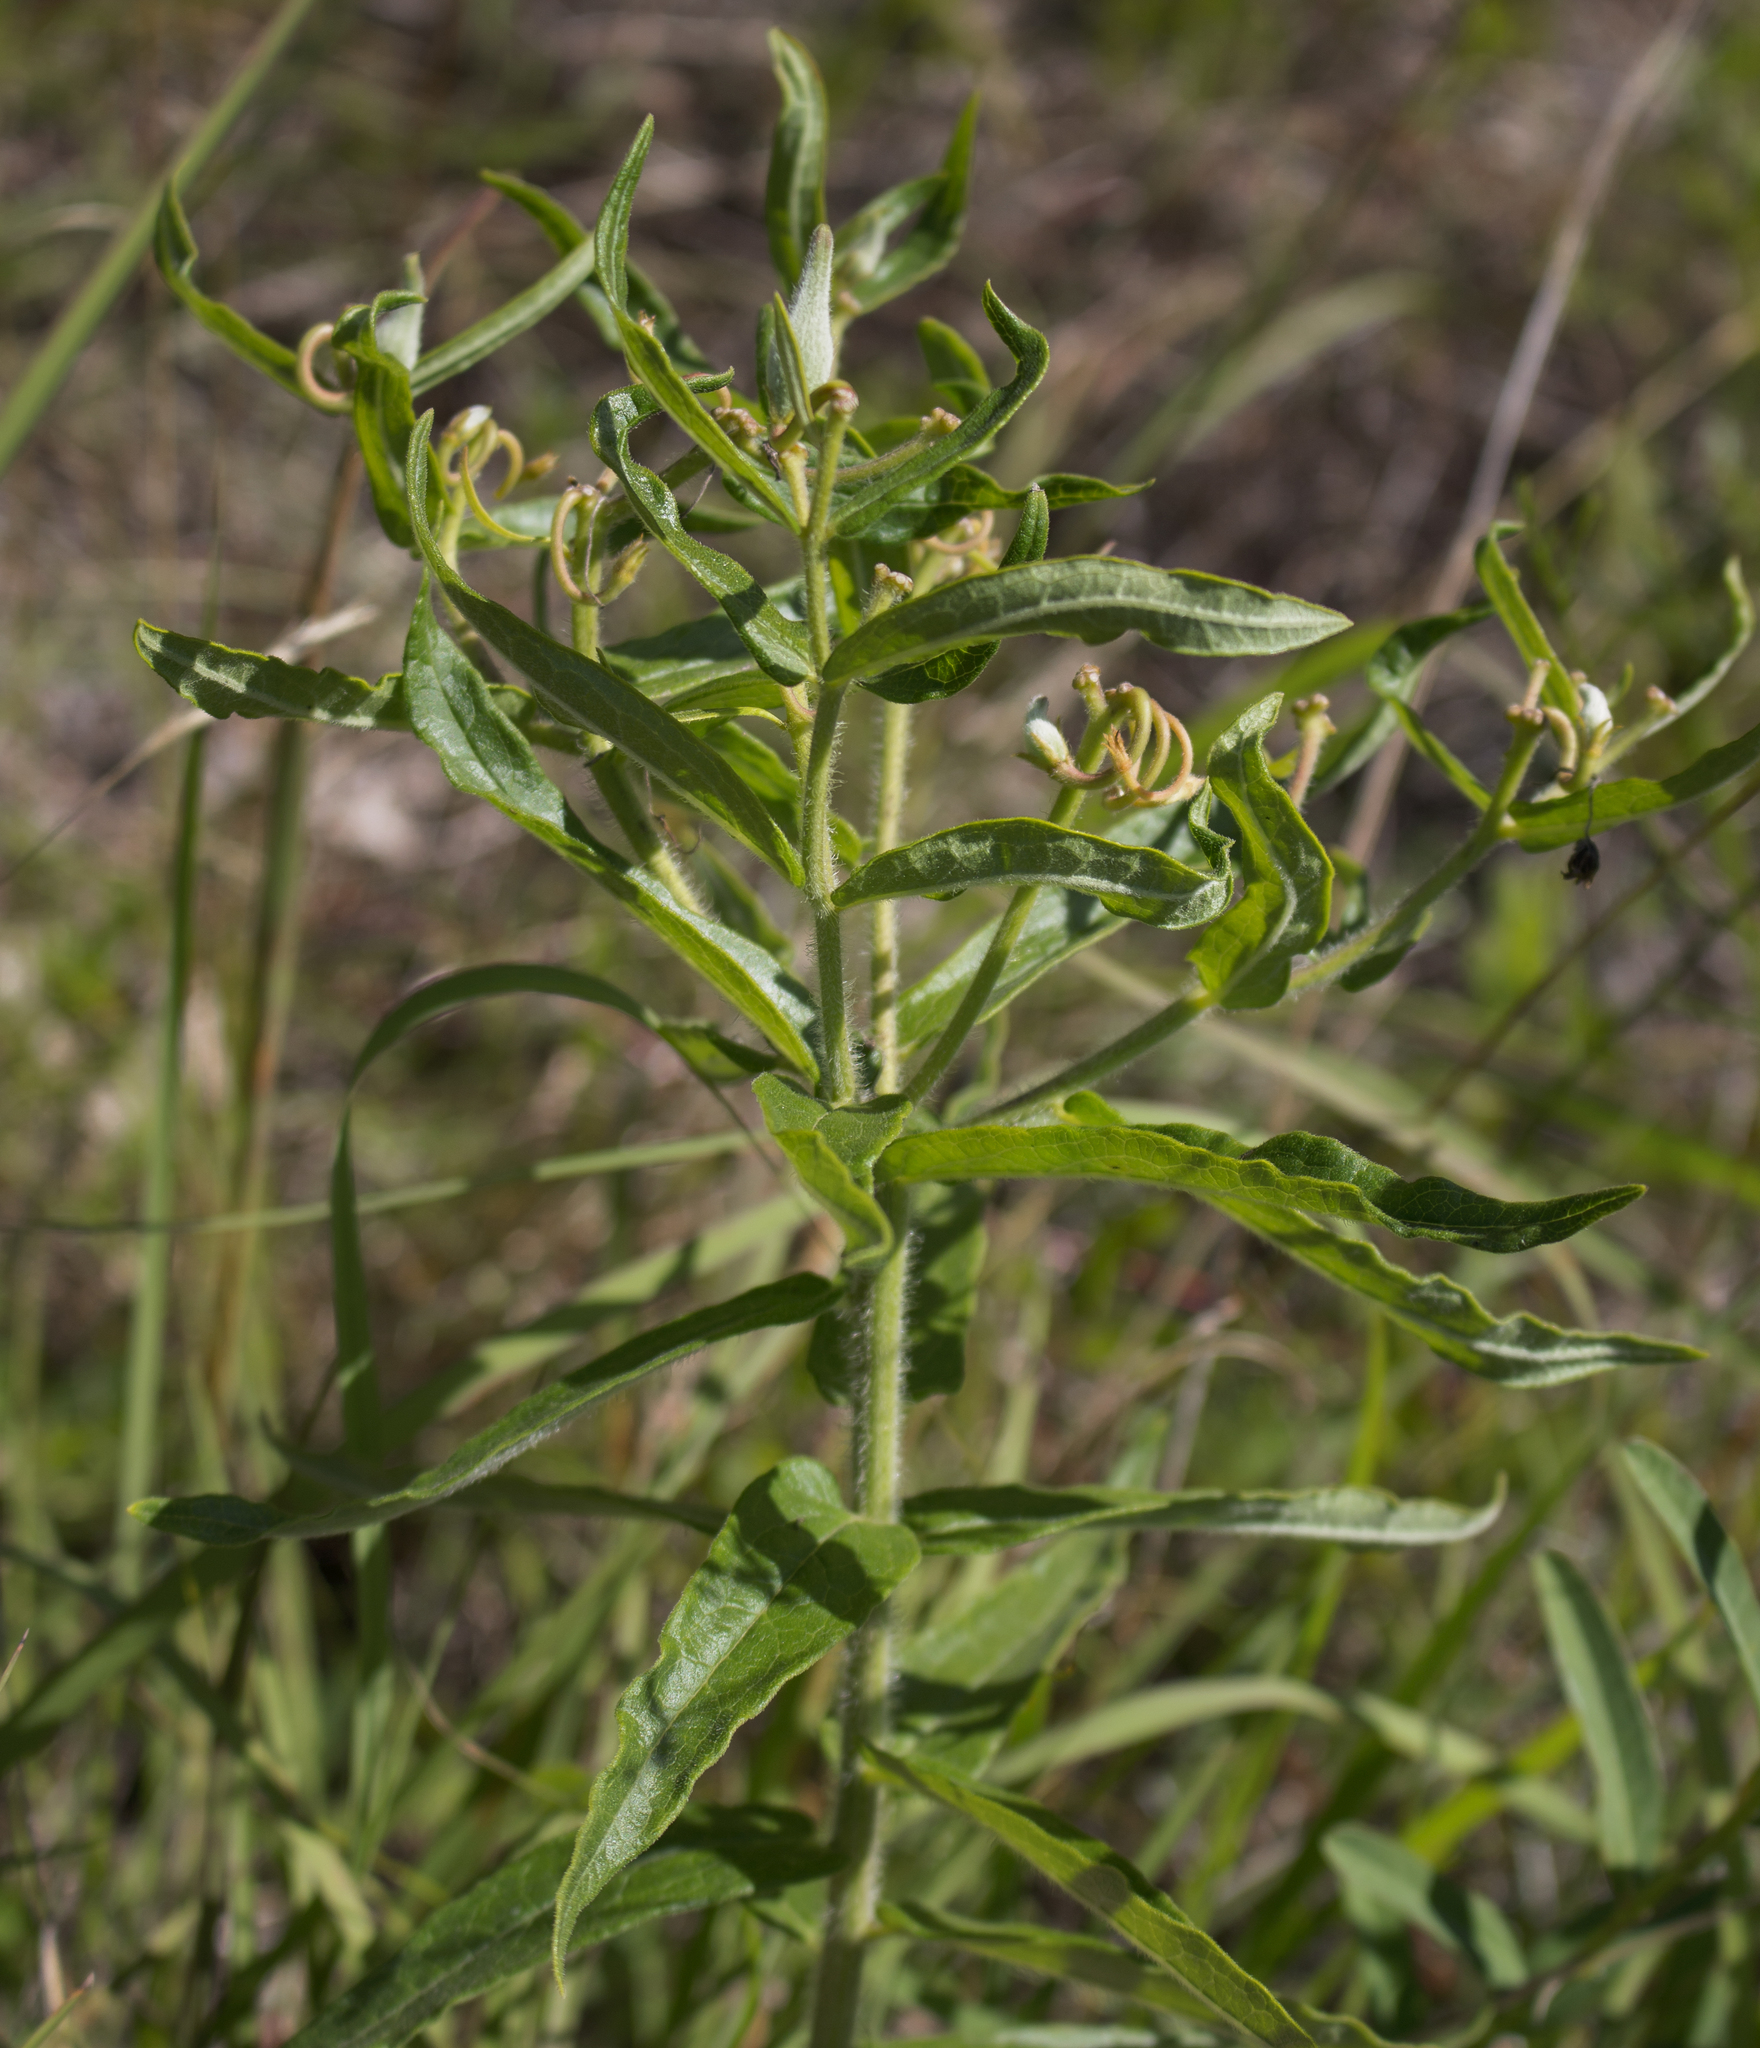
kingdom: Plantae
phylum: Tracheophyta
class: Magnoliopsida
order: Gentianales
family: Apocynaceae
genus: Asclepias
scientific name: Asclepias tuberosa
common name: Butterfly milkweed
